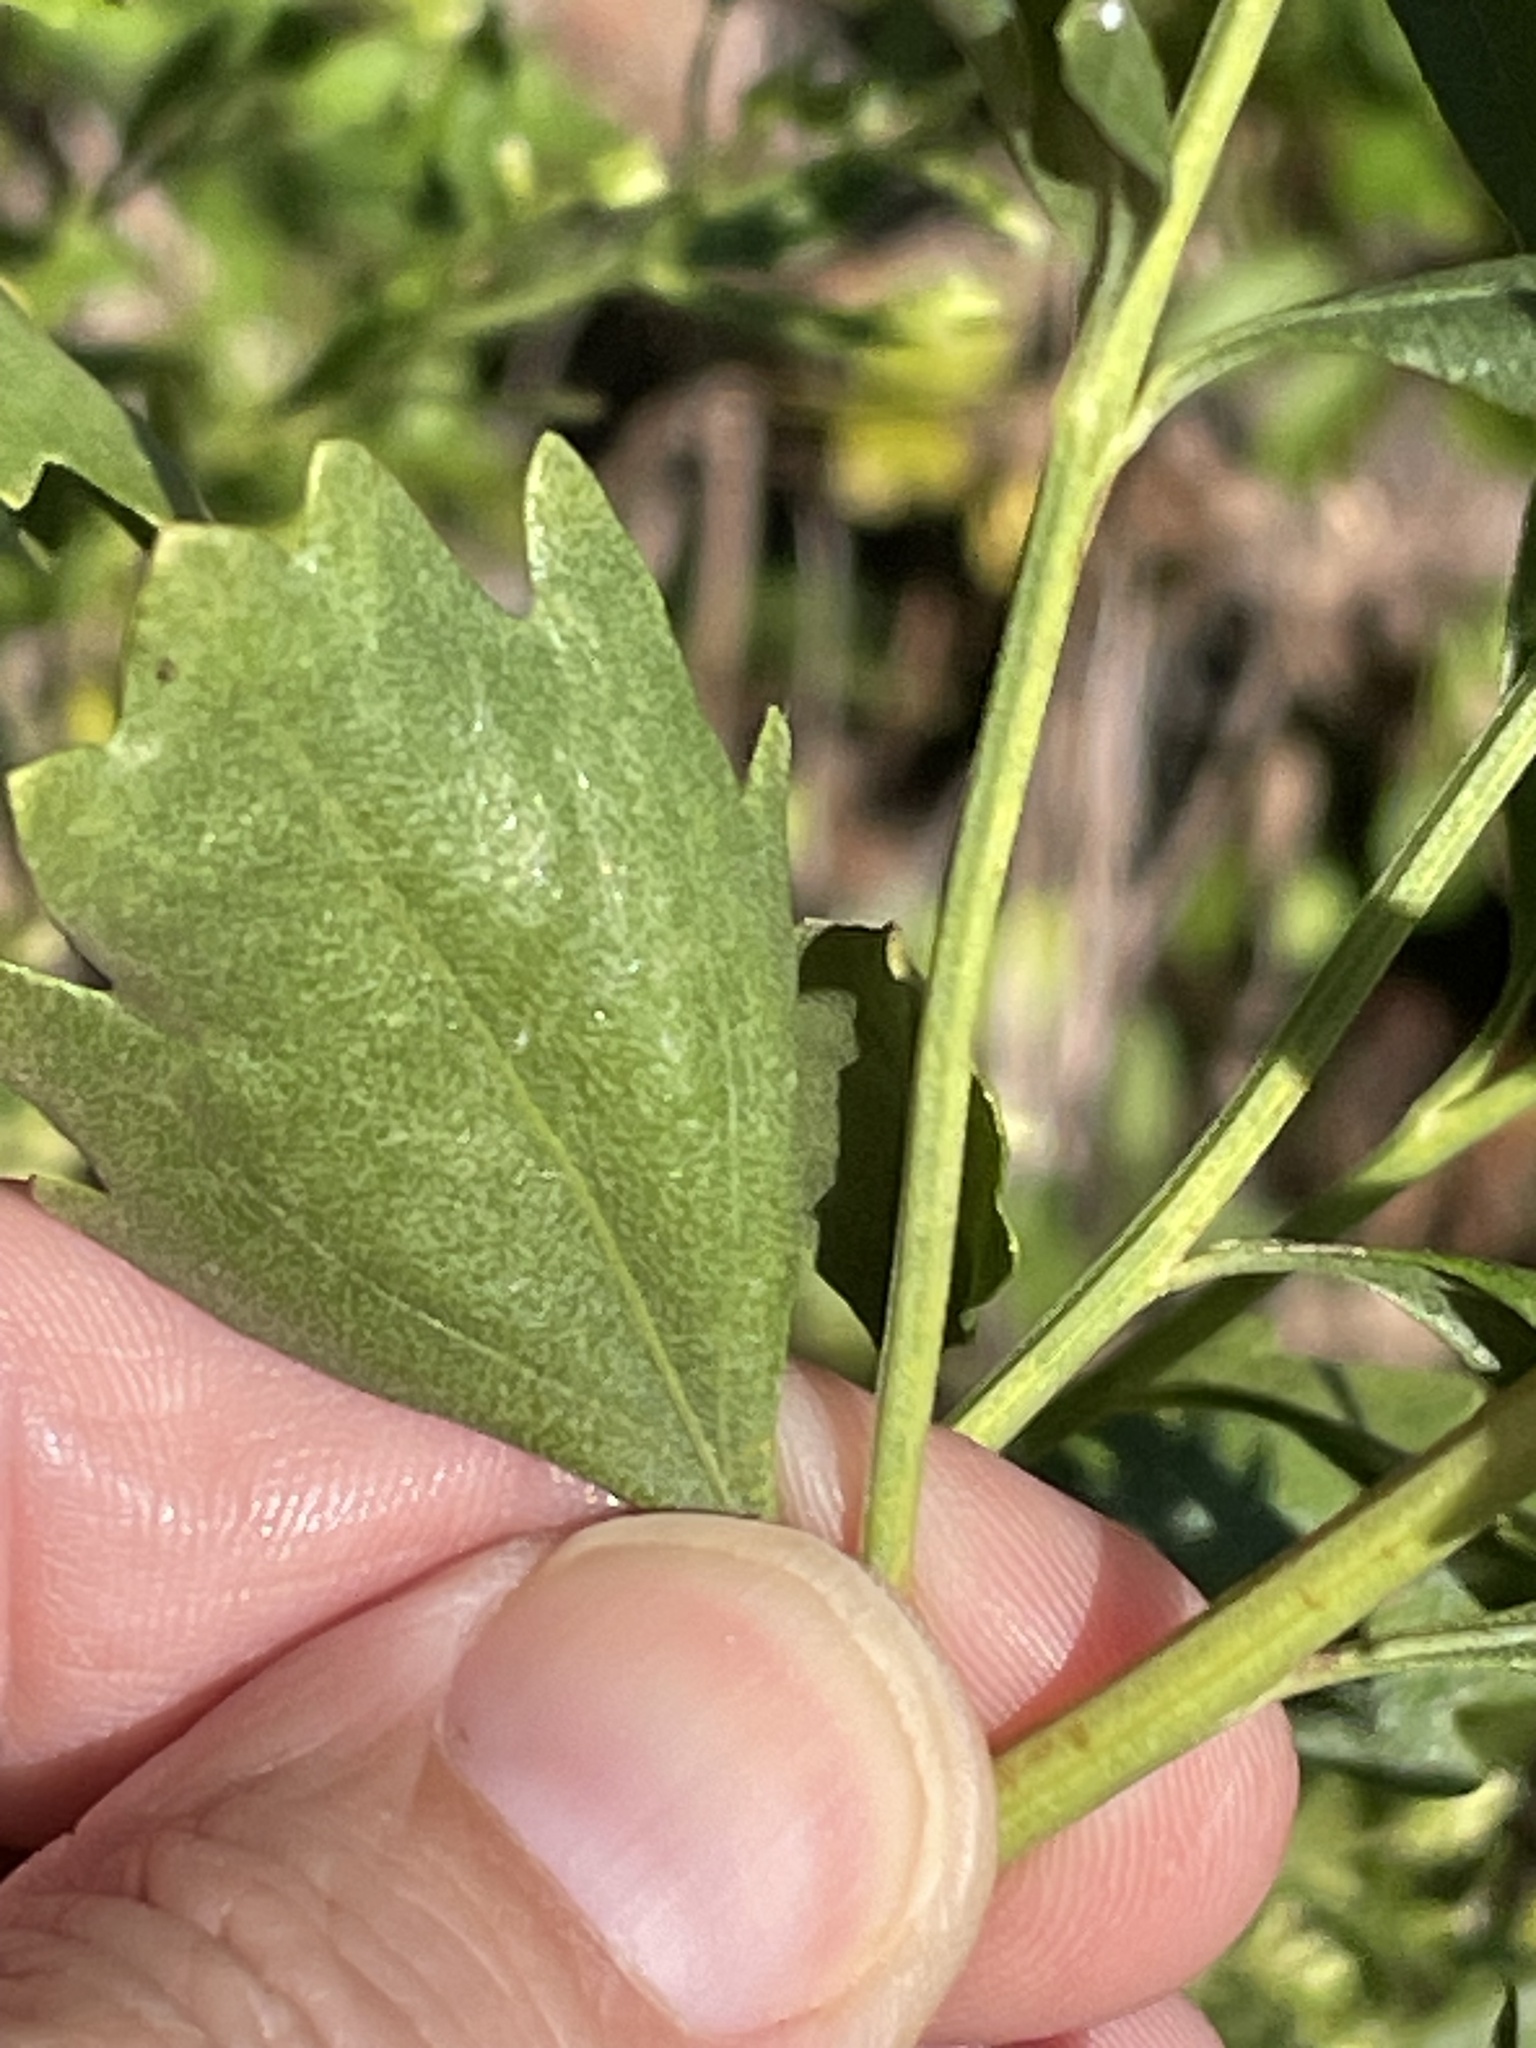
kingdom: Plantae
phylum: Tracheophyta
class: Magnoliopsida
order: Asterales
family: Asteraceae
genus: Baccharis
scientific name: Baccharis halimifolia
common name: Eastern baccharis
